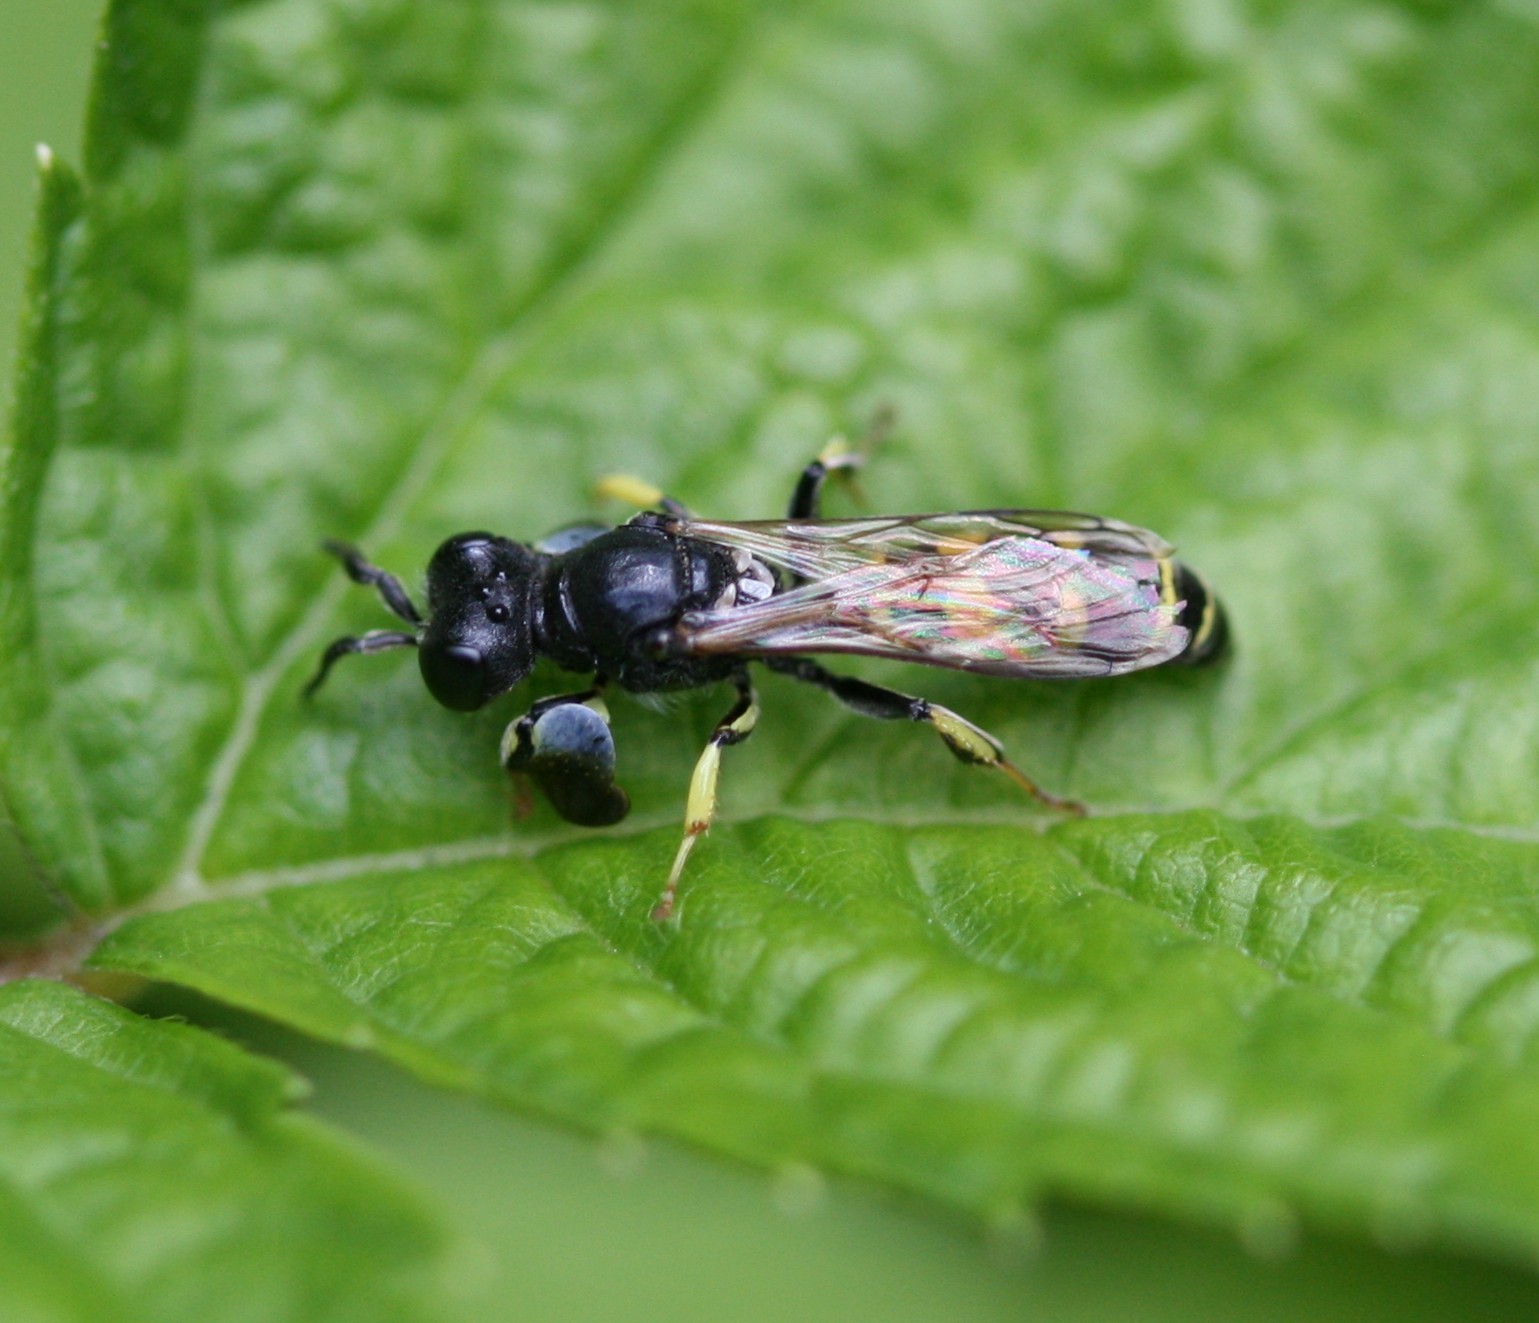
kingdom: Animalia
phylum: Arthropoda
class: Insecta
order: Hymenoptera
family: Crabronidae
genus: Crabro
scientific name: Crabro peltarius
